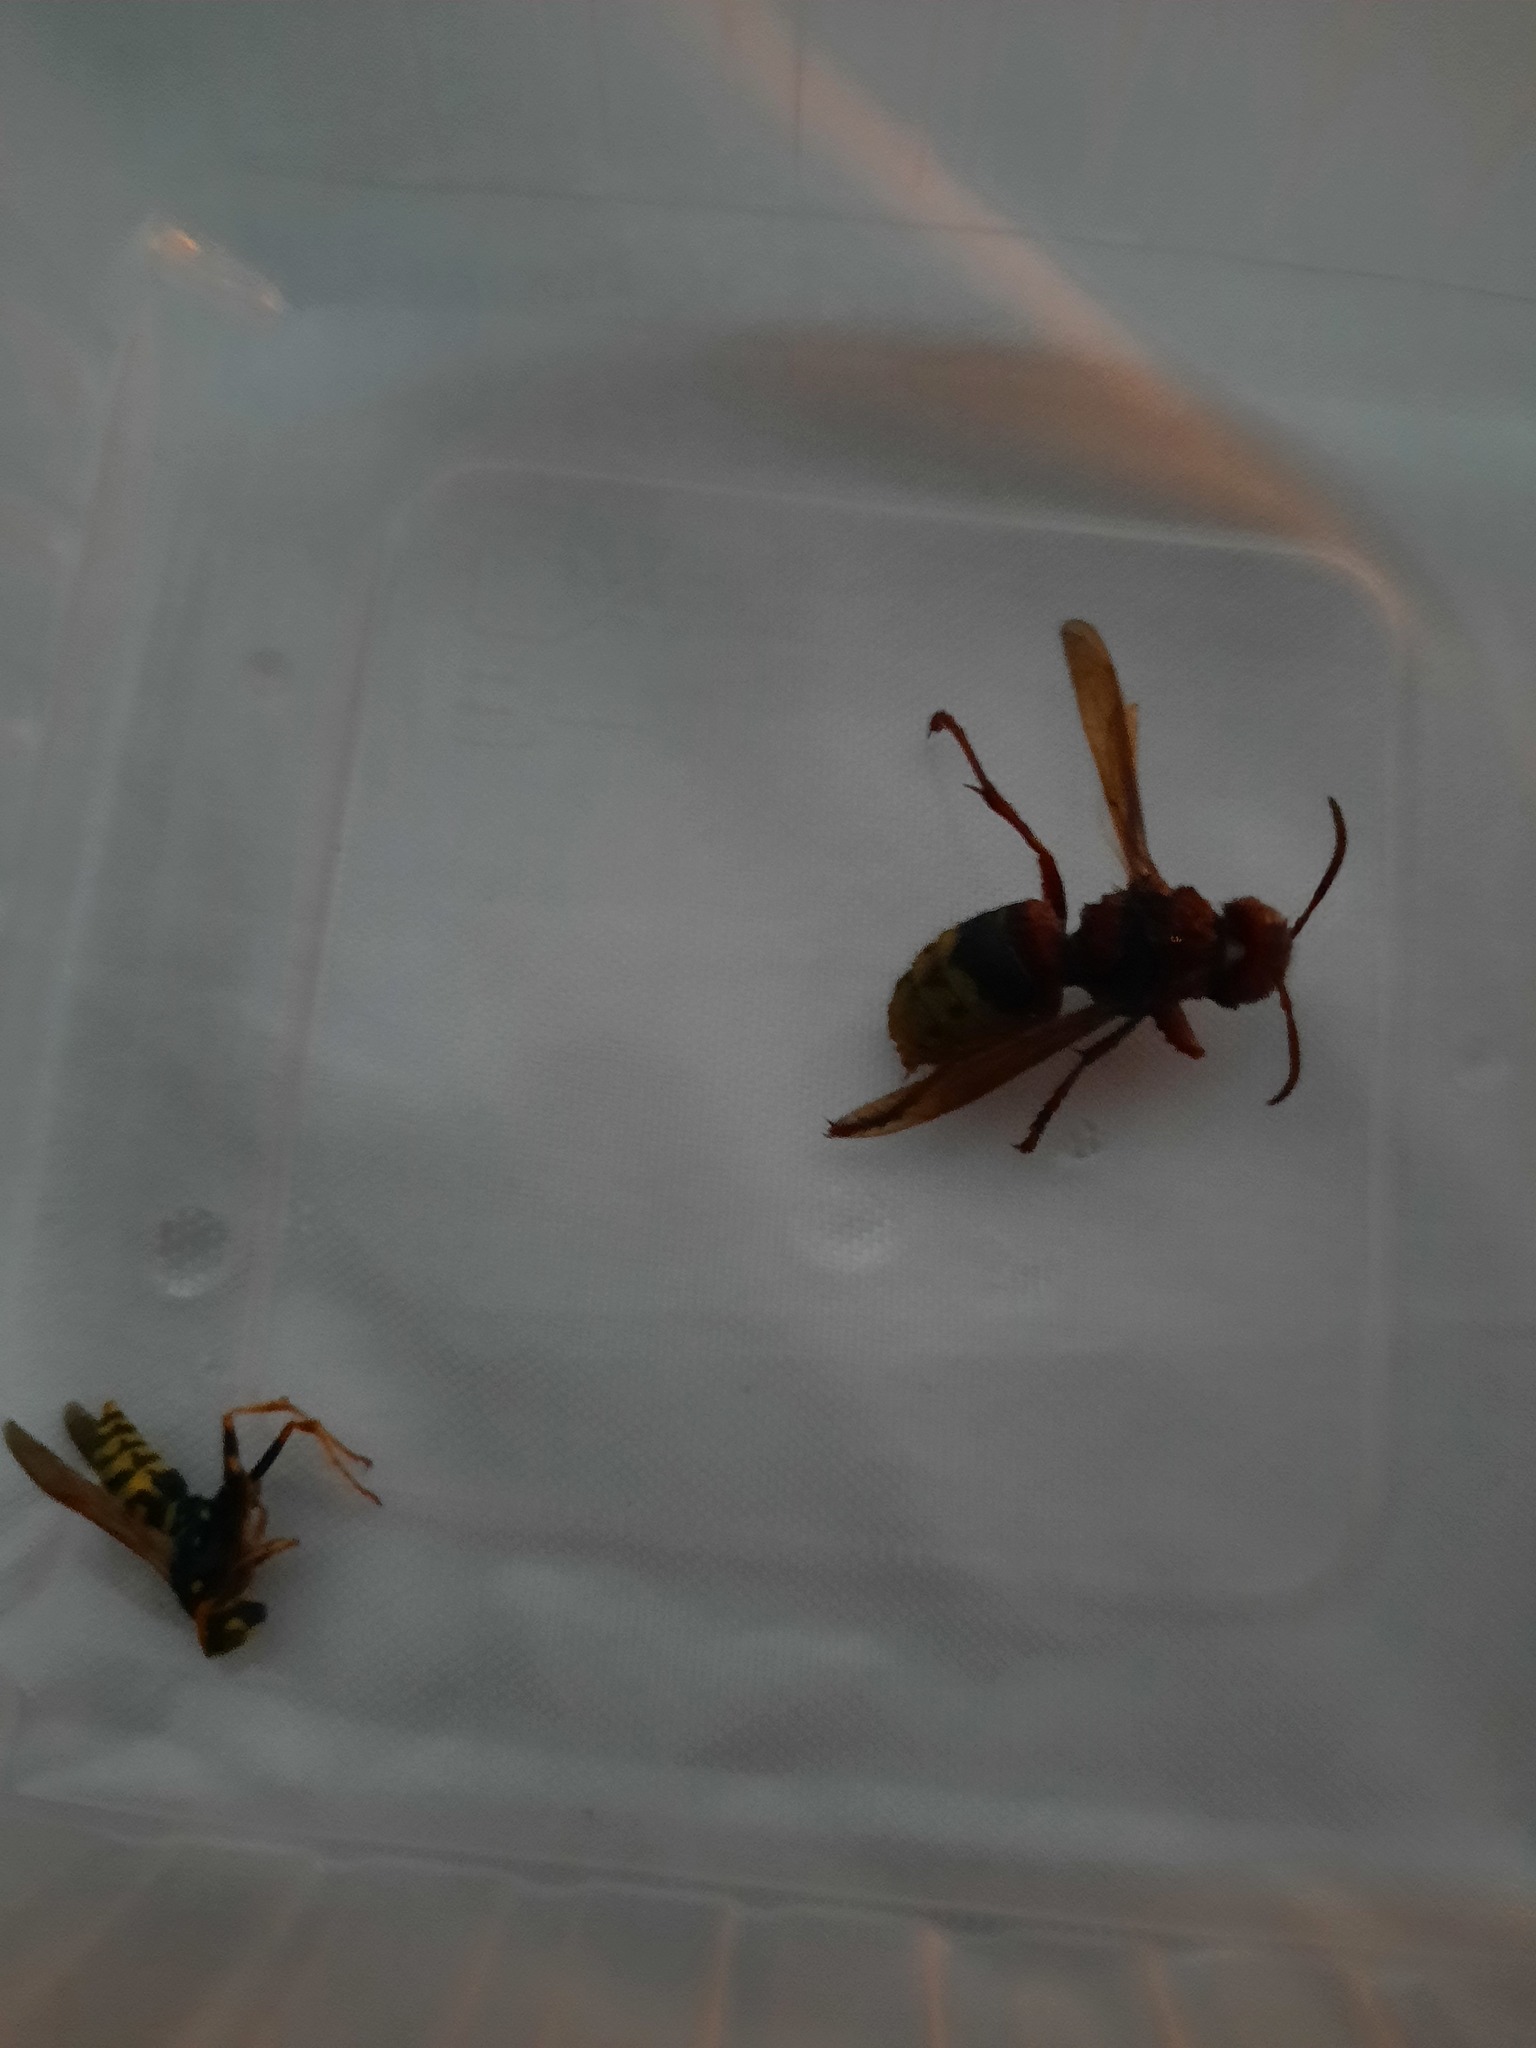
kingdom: Animalia
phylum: Arthropoda
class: Insecta
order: Hymenoptera
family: Vespidae
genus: Vespa
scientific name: Vespa crabro
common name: Hornet
